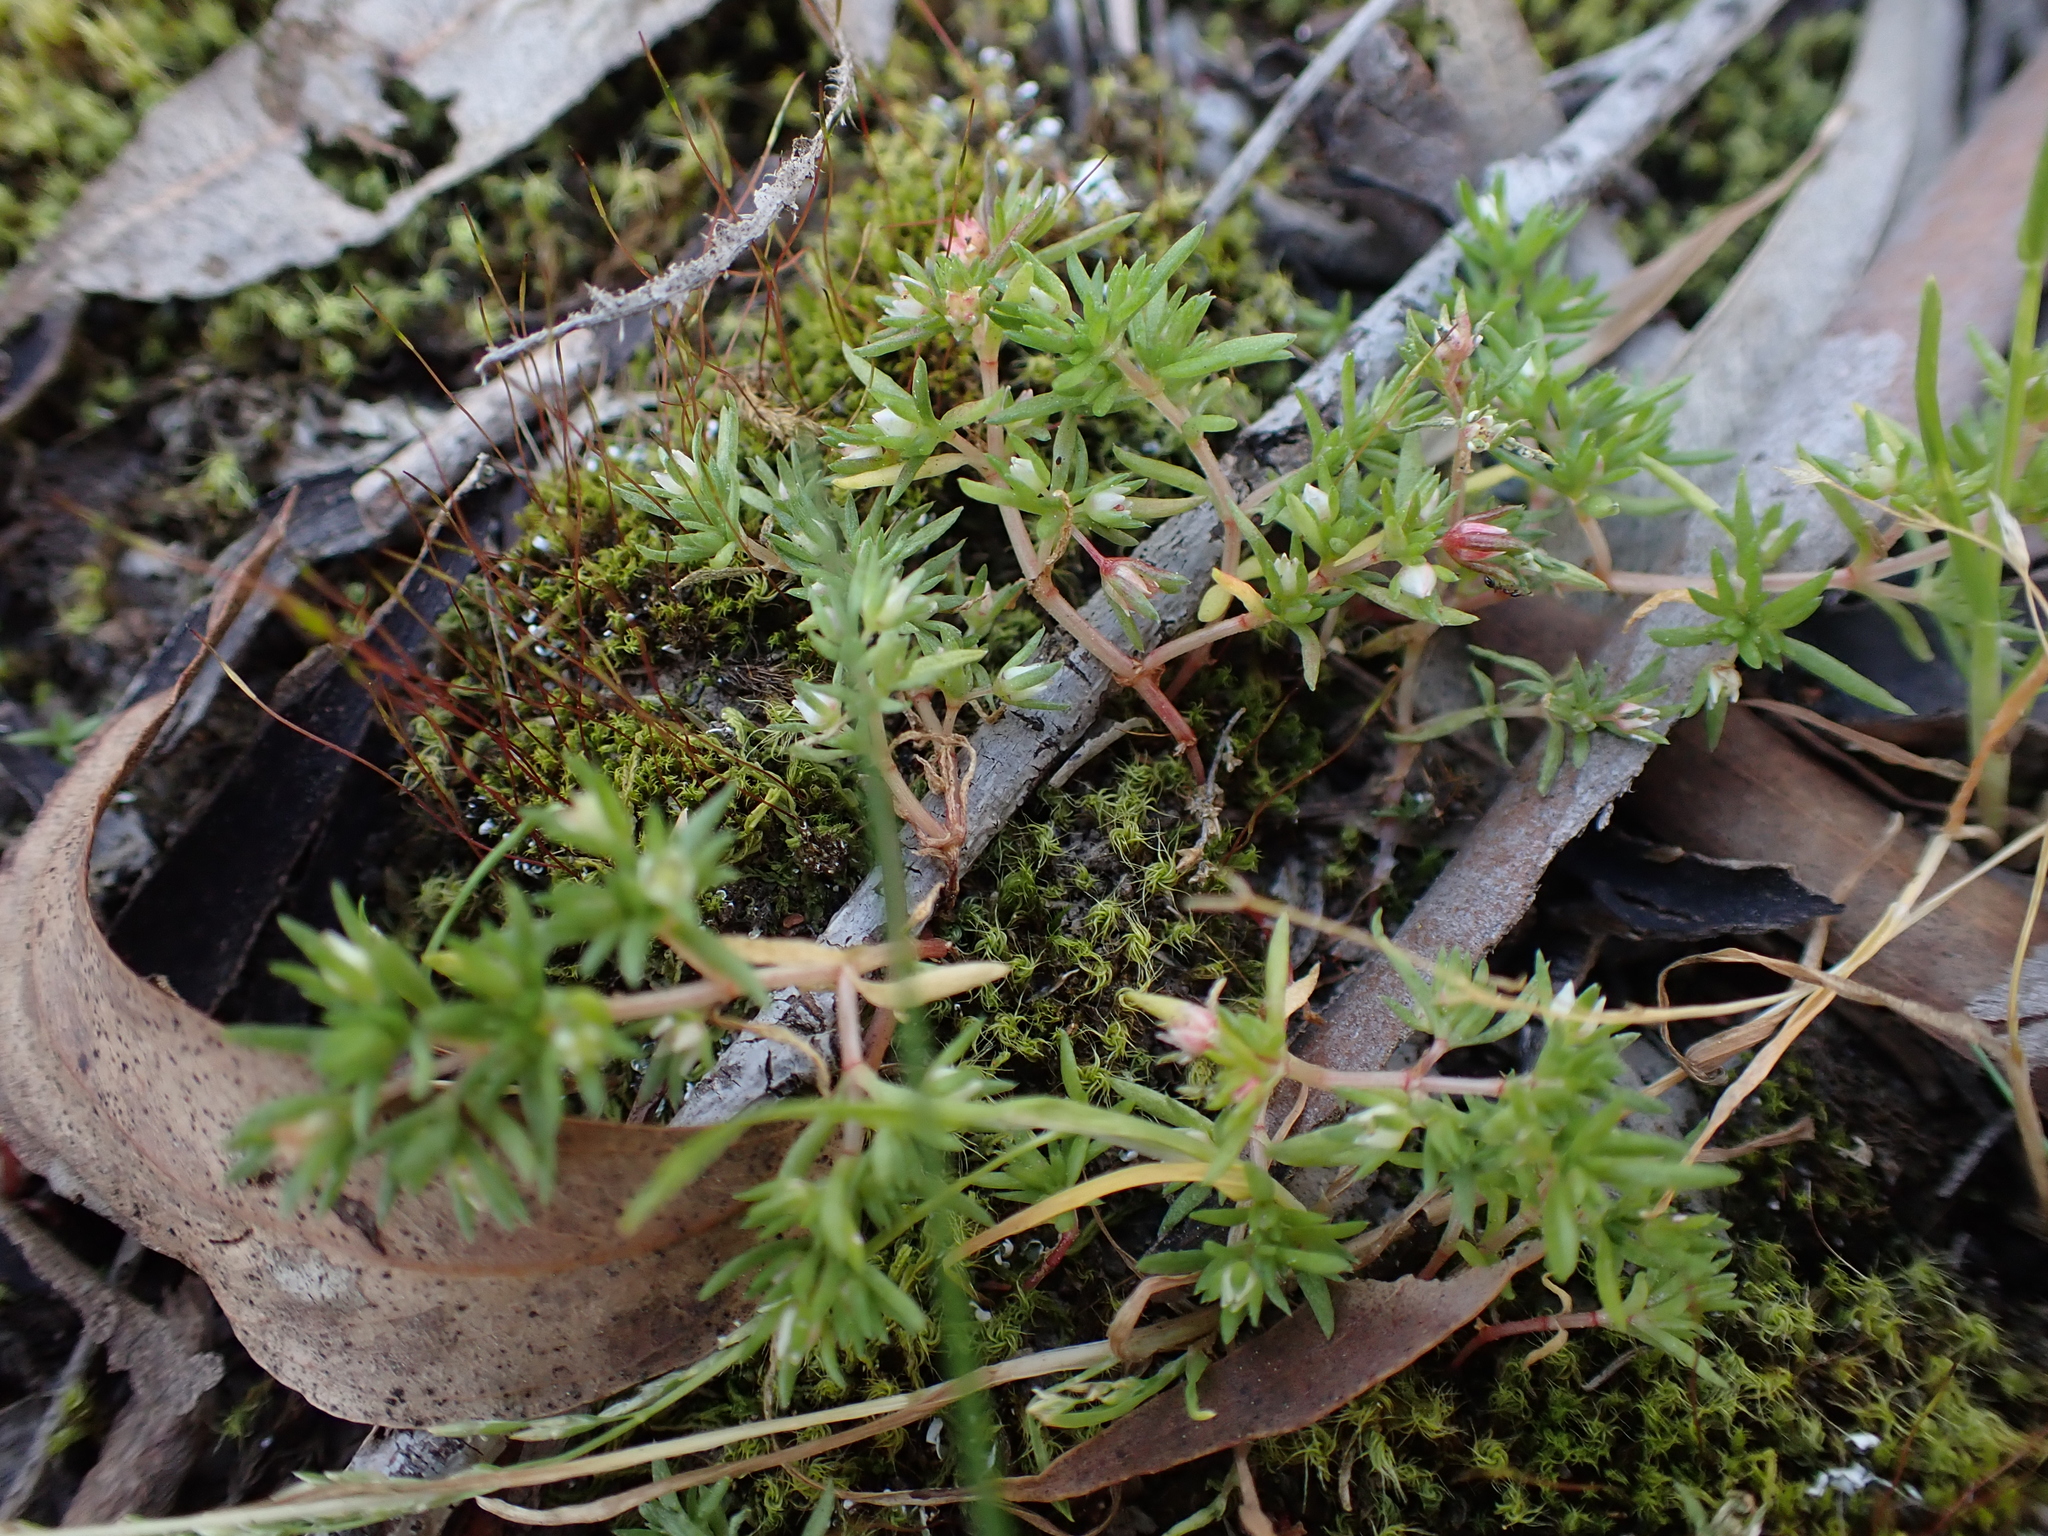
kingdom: Plantae
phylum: Tracheophyta
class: Magnoliopsida
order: Saxifragales
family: Crassulaceae
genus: Crassula
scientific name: Crassula decumbens
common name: Scilly pigmyweed
